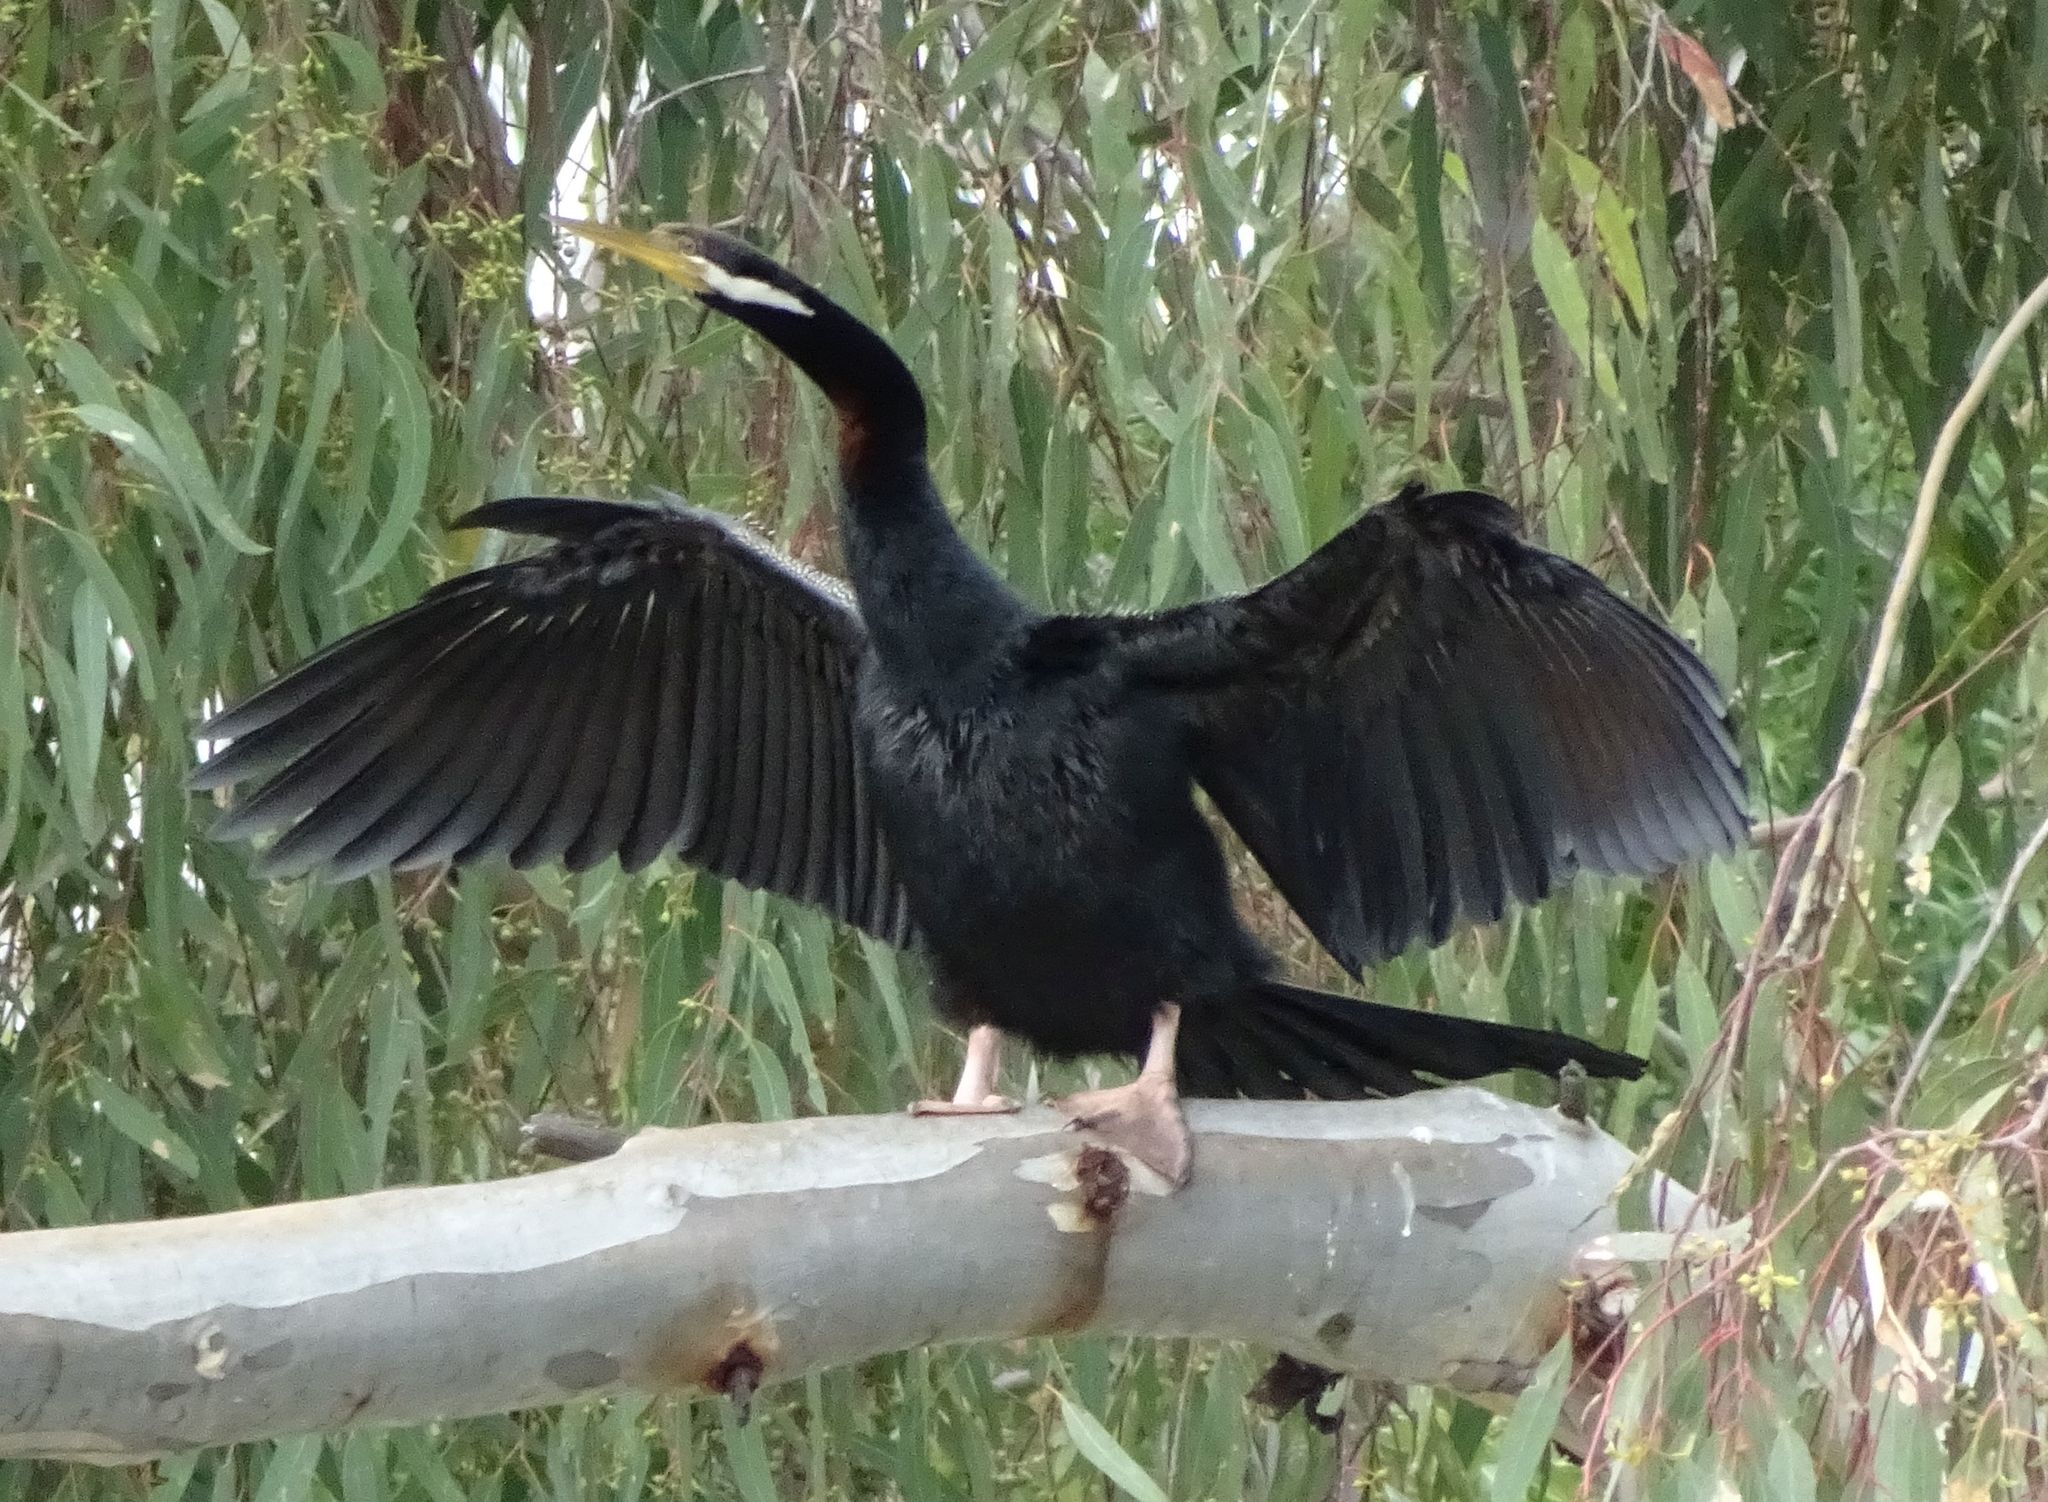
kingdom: Animalia
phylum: Chordata
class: Aves
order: Suliformes
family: Anhingidae
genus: Anhinga
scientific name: Anhinga novaehollandiae
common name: Australasian darter
